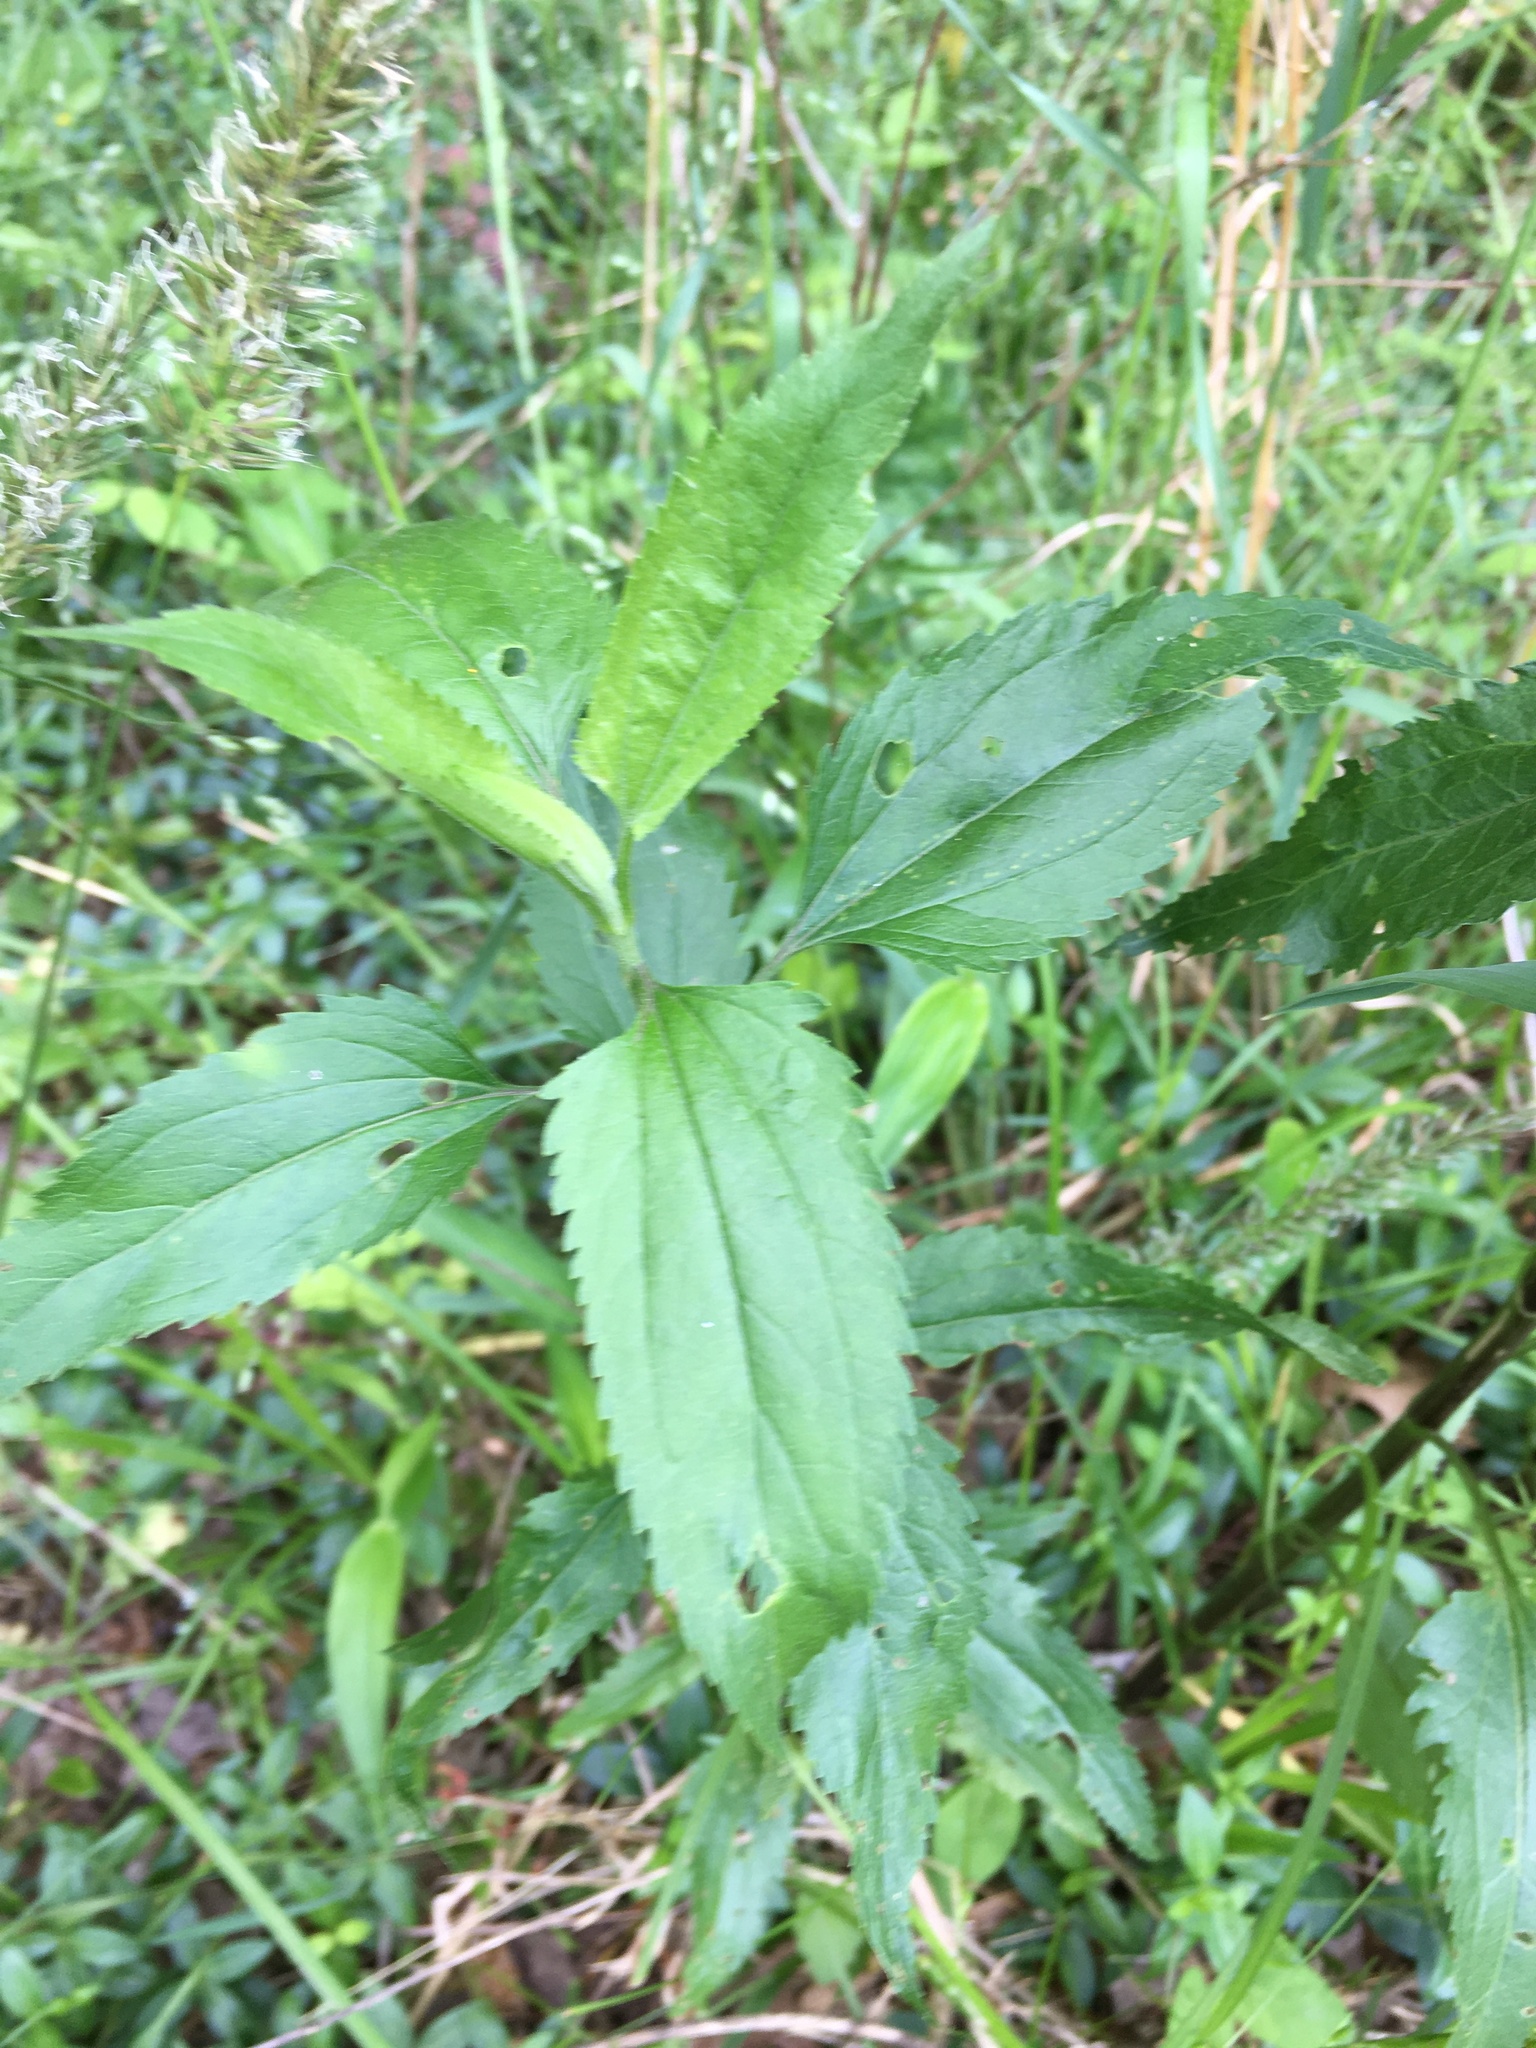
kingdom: Plantae
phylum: Tracheophyta
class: Magnoliopsida
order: Asterales
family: Asteraceae
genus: Eupatorium
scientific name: Eupatorium serotinum
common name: Late boneset
